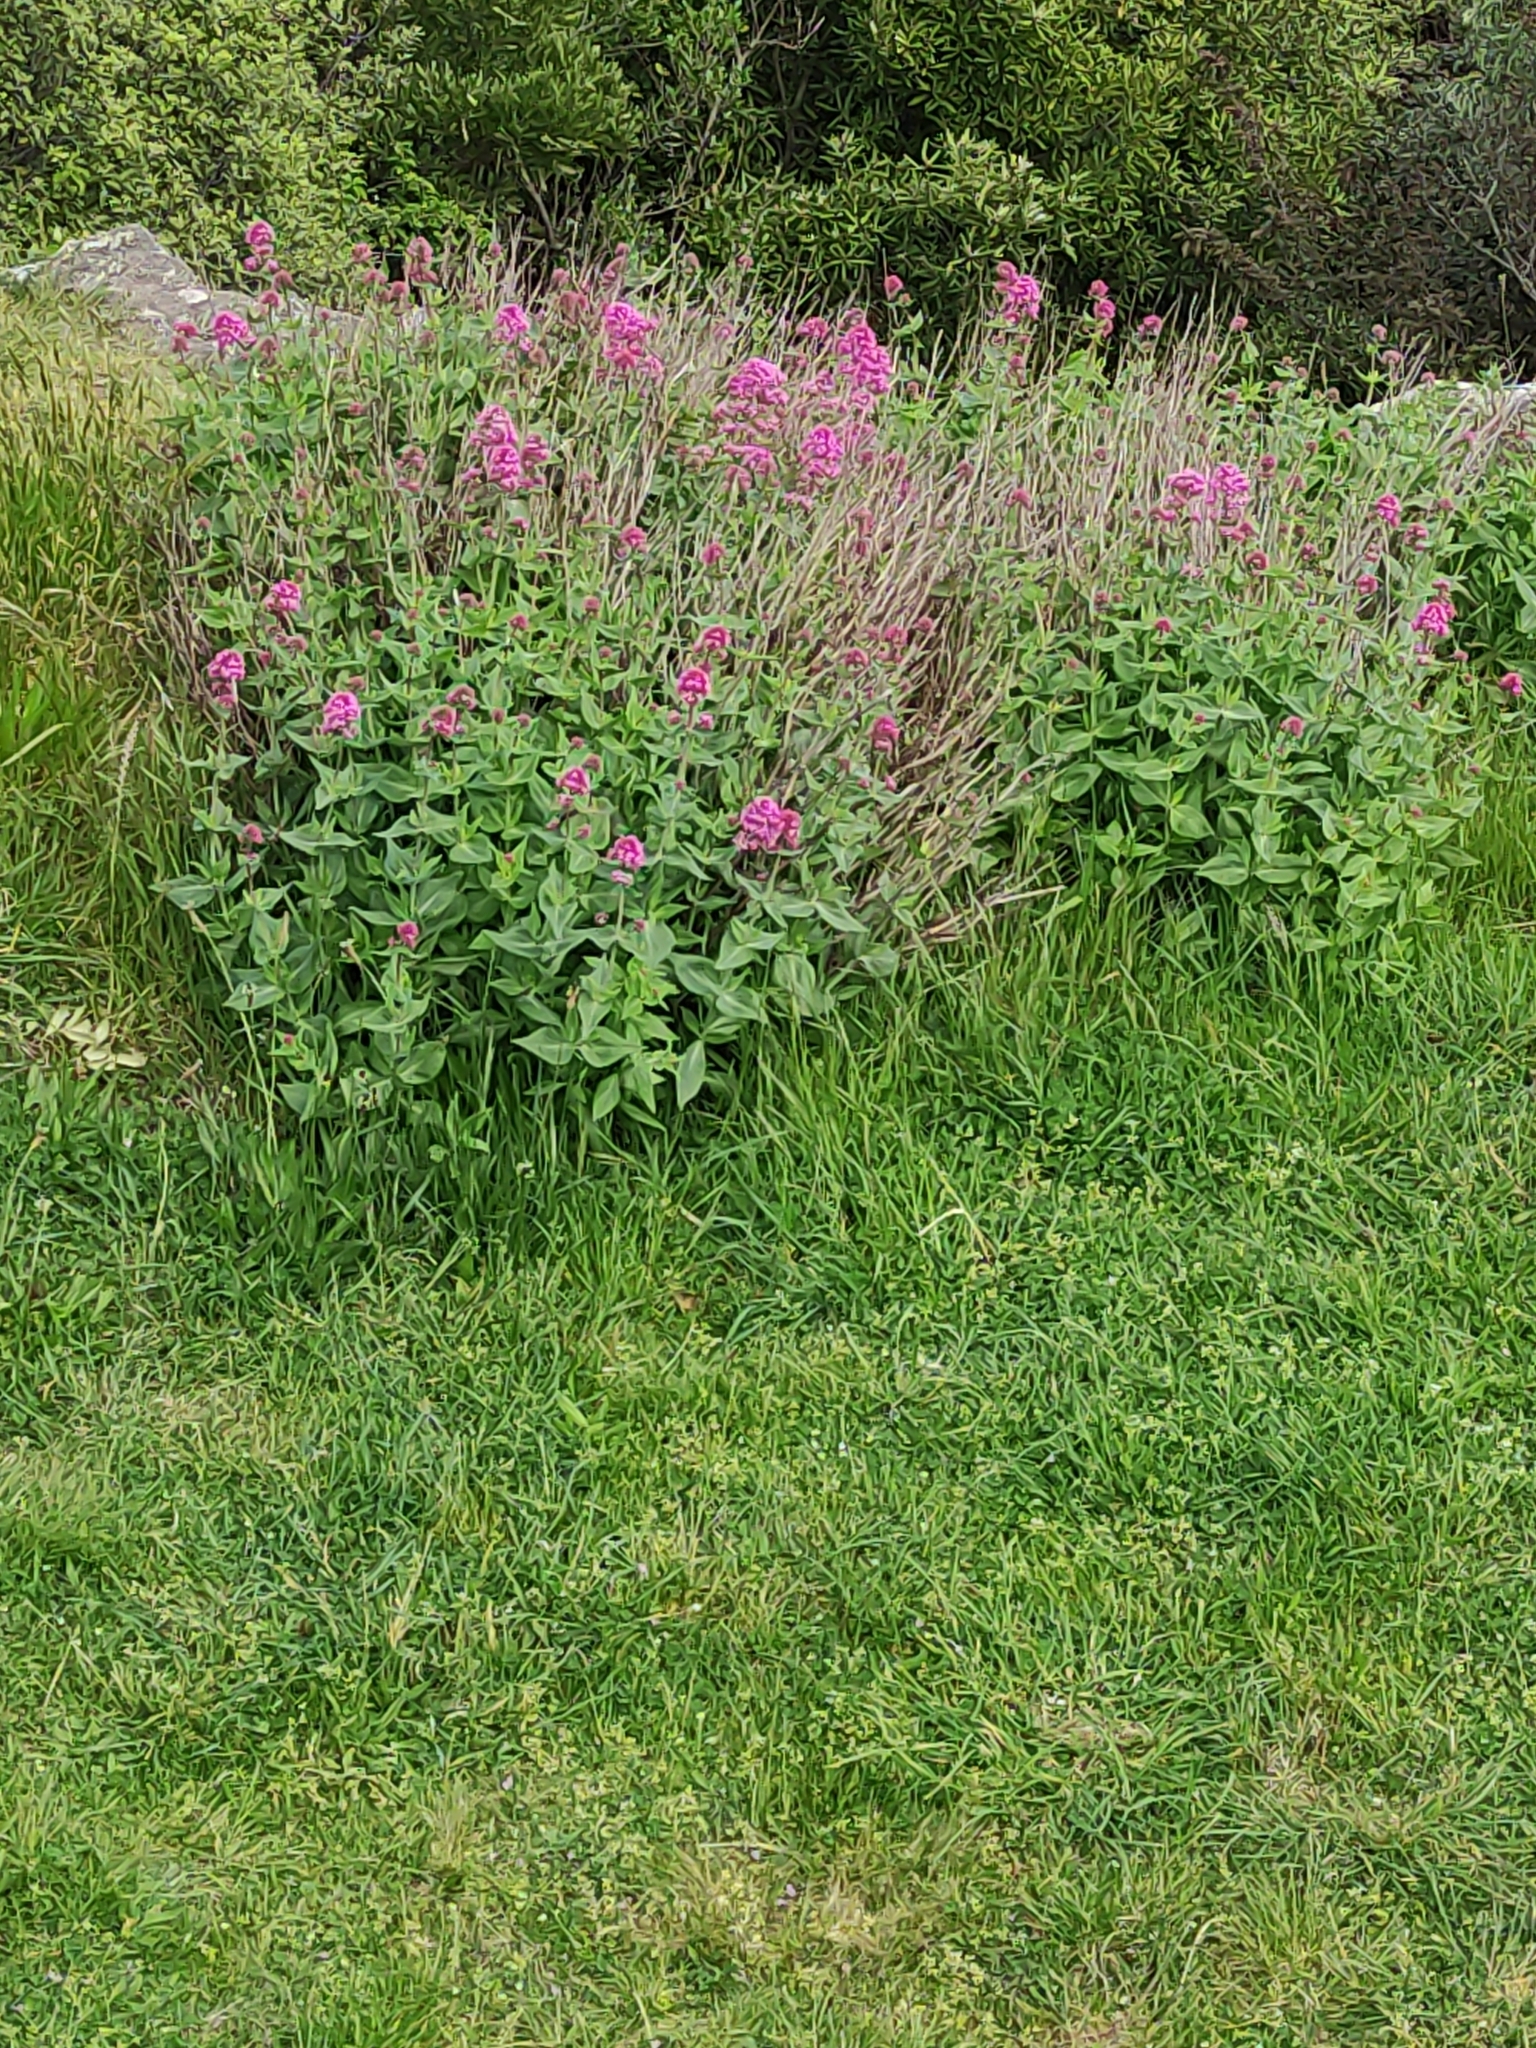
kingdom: Plantae
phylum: Tracheophyta
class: Magnoliopsida
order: Dipsacales
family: Caprifoliaceae
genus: Centranthus
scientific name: Centranthus ruber
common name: Red valerian
